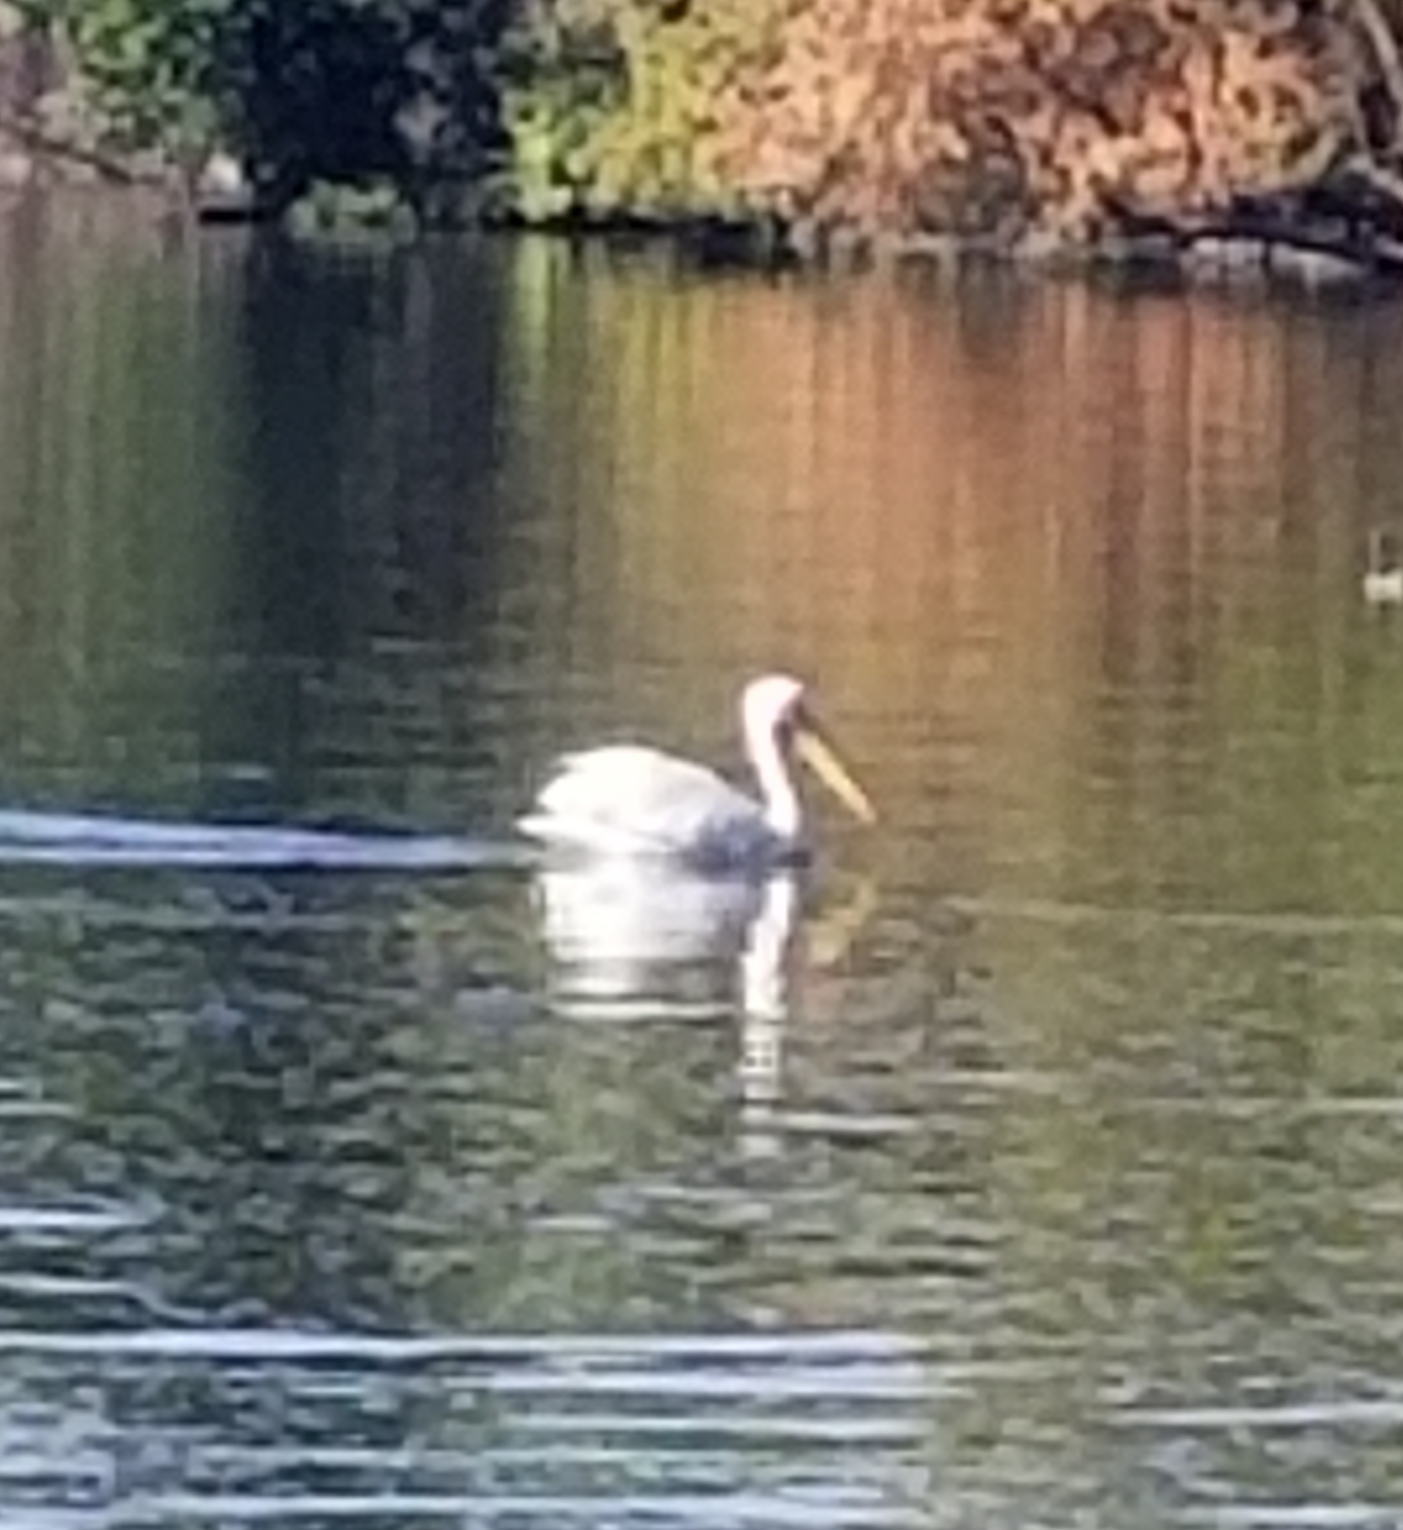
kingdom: Animalia
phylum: Chordata
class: Aves
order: Pelecaniformes
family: Pelecanidae
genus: Pelecanus
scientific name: Pelecanus erythrorhynchos
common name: American white pelican
